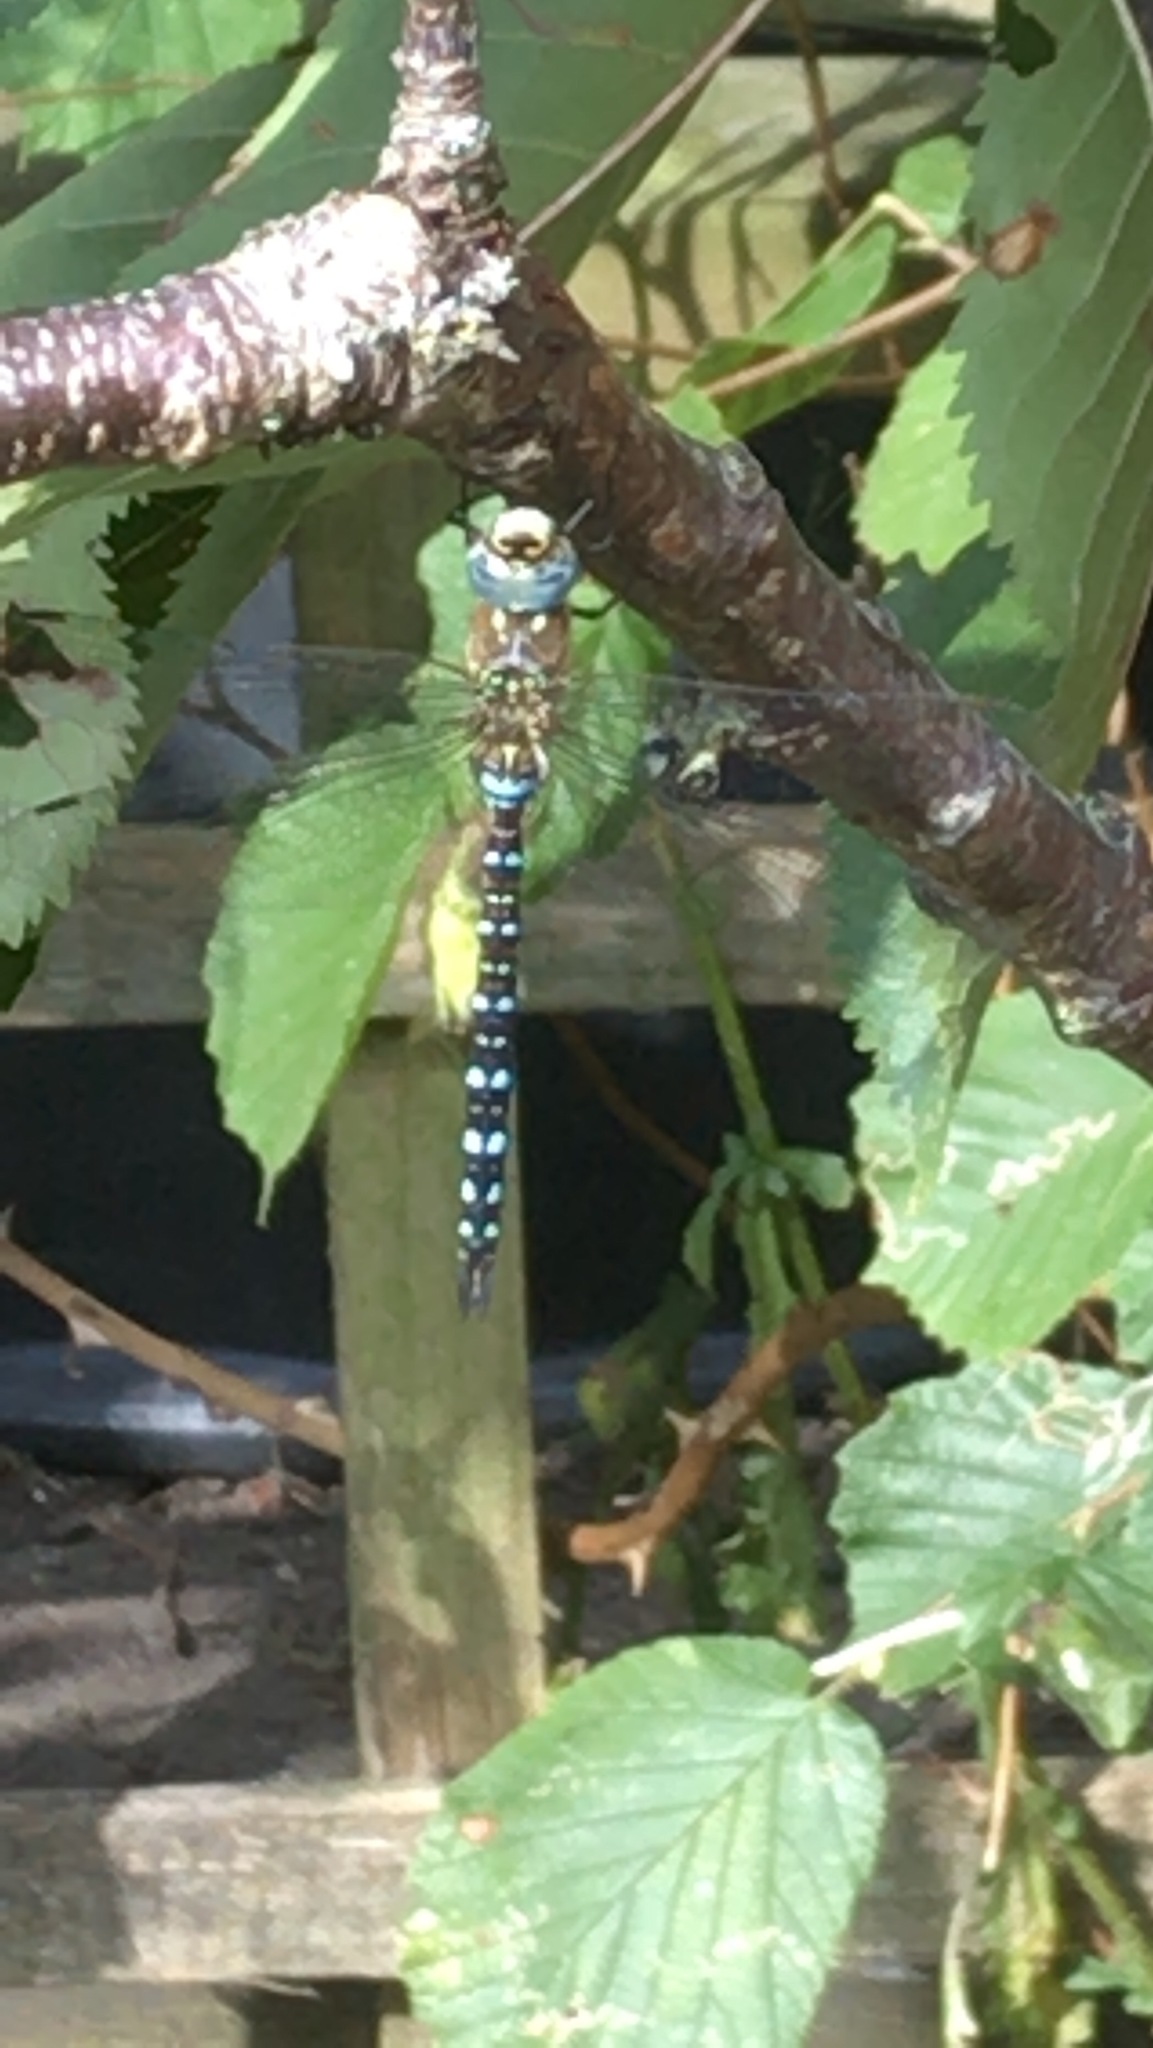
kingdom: Animalia
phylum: Arthropoda
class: Insecta
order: Odonata
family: Aeshnidae
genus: Aeshna
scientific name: Aeshna mixta
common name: Migrant hawker
